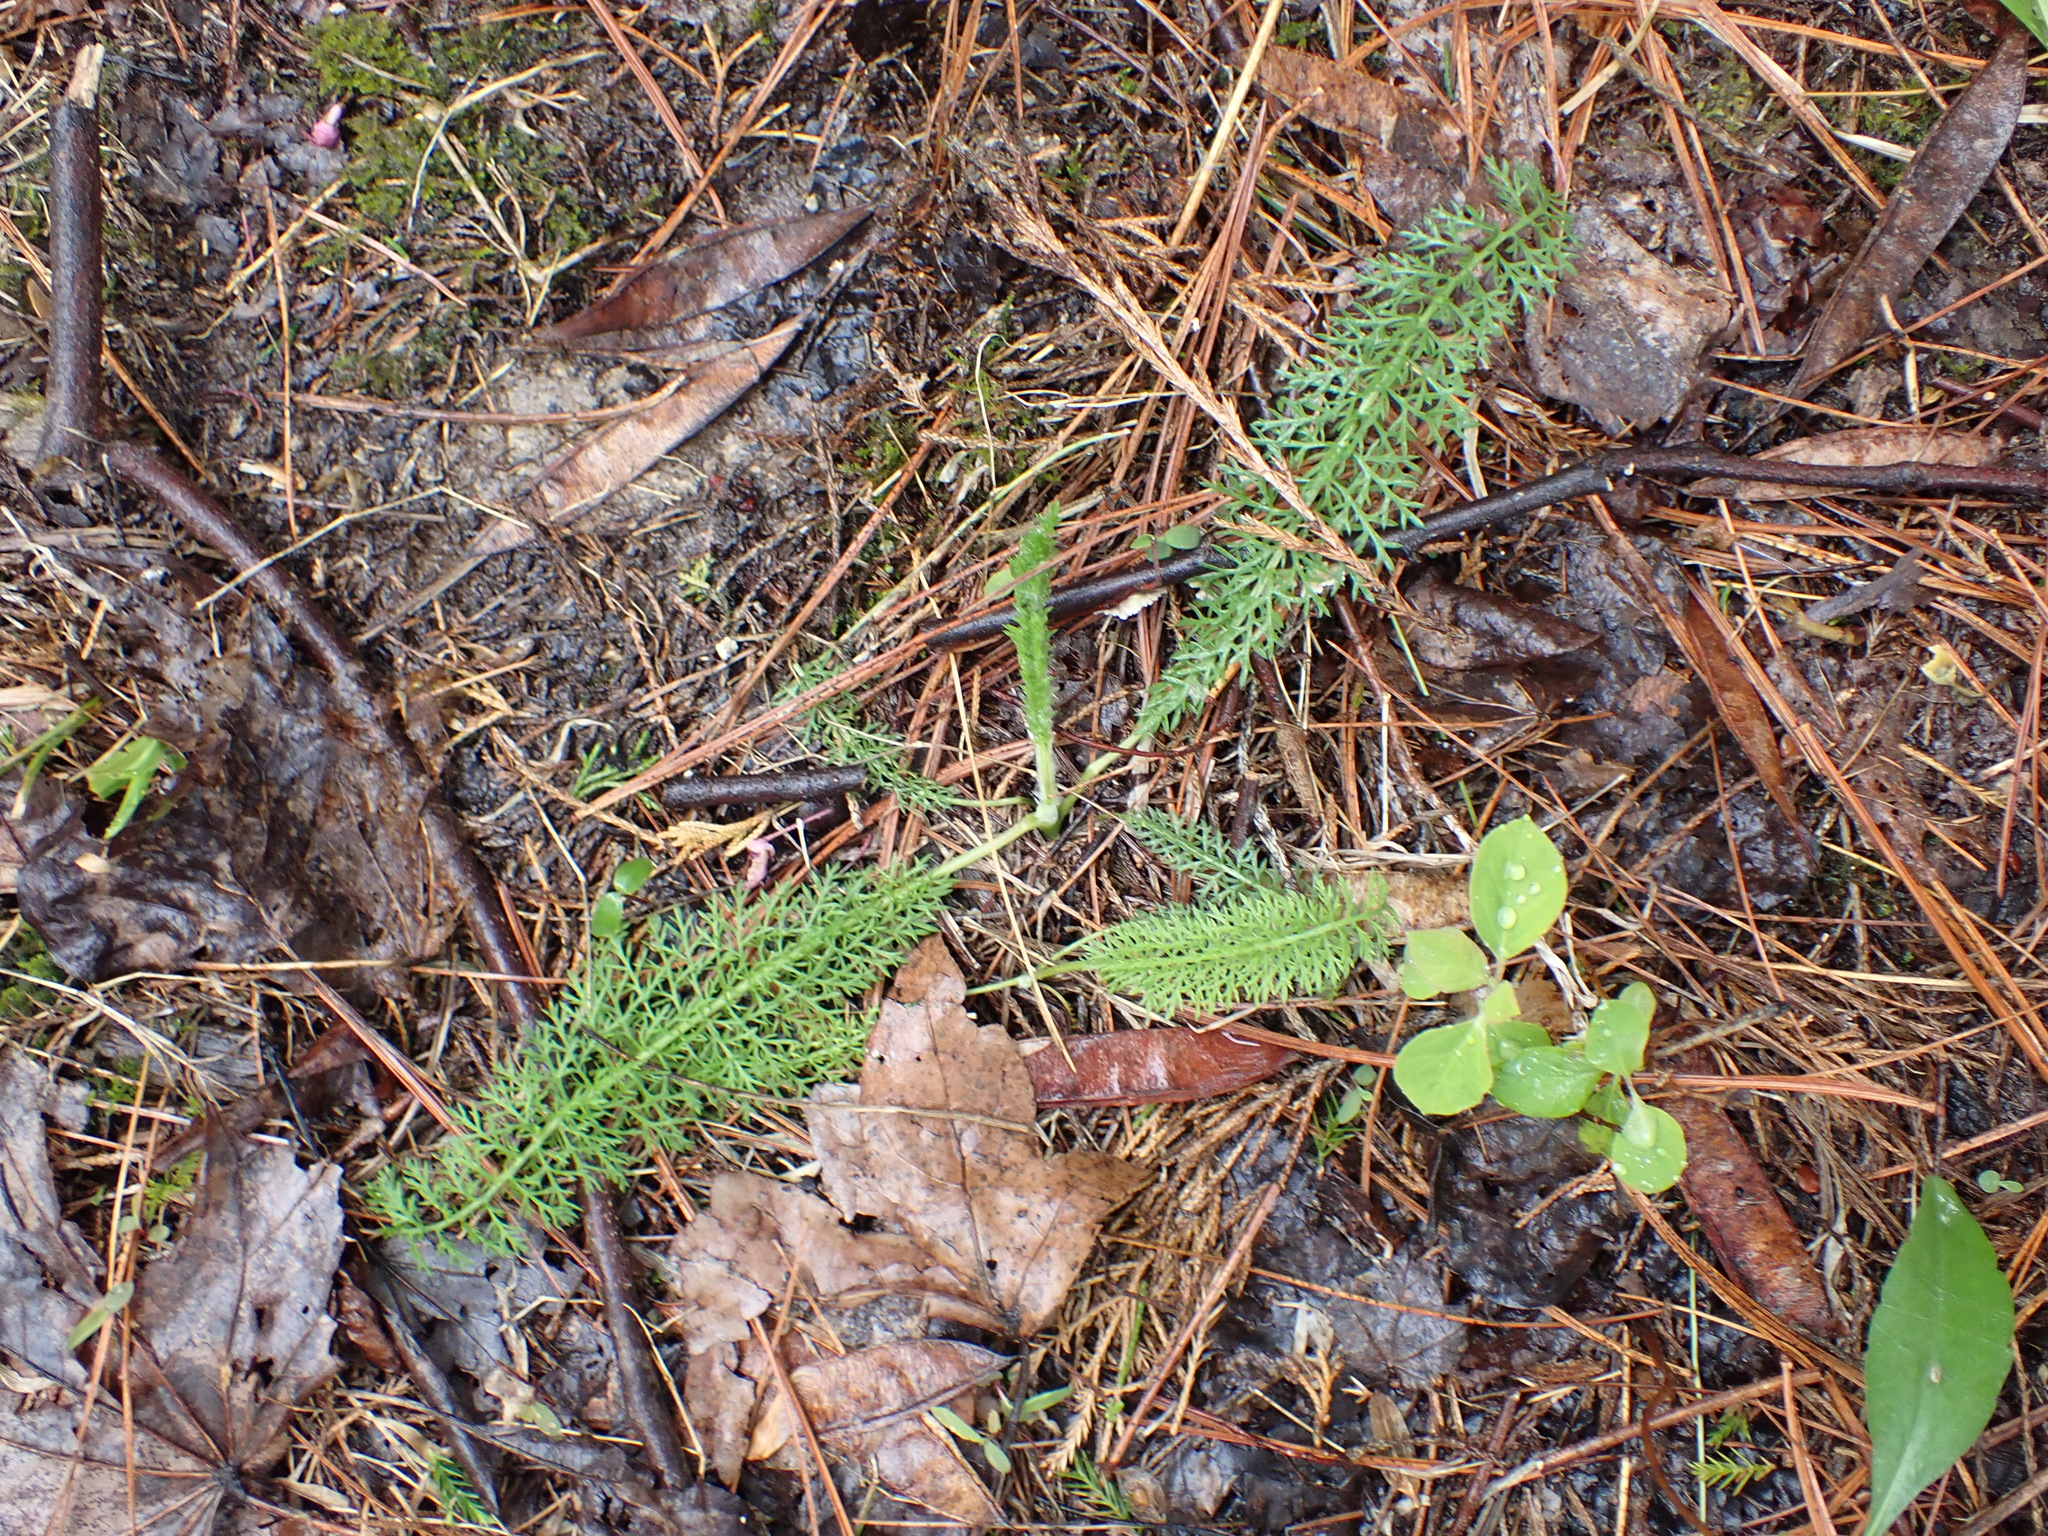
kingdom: Plantae
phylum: Tracheophyta
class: Magnoliopsida
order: Asterales
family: Asteraceae
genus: Achillea
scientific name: Achillea millefolium
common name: Yarrow
